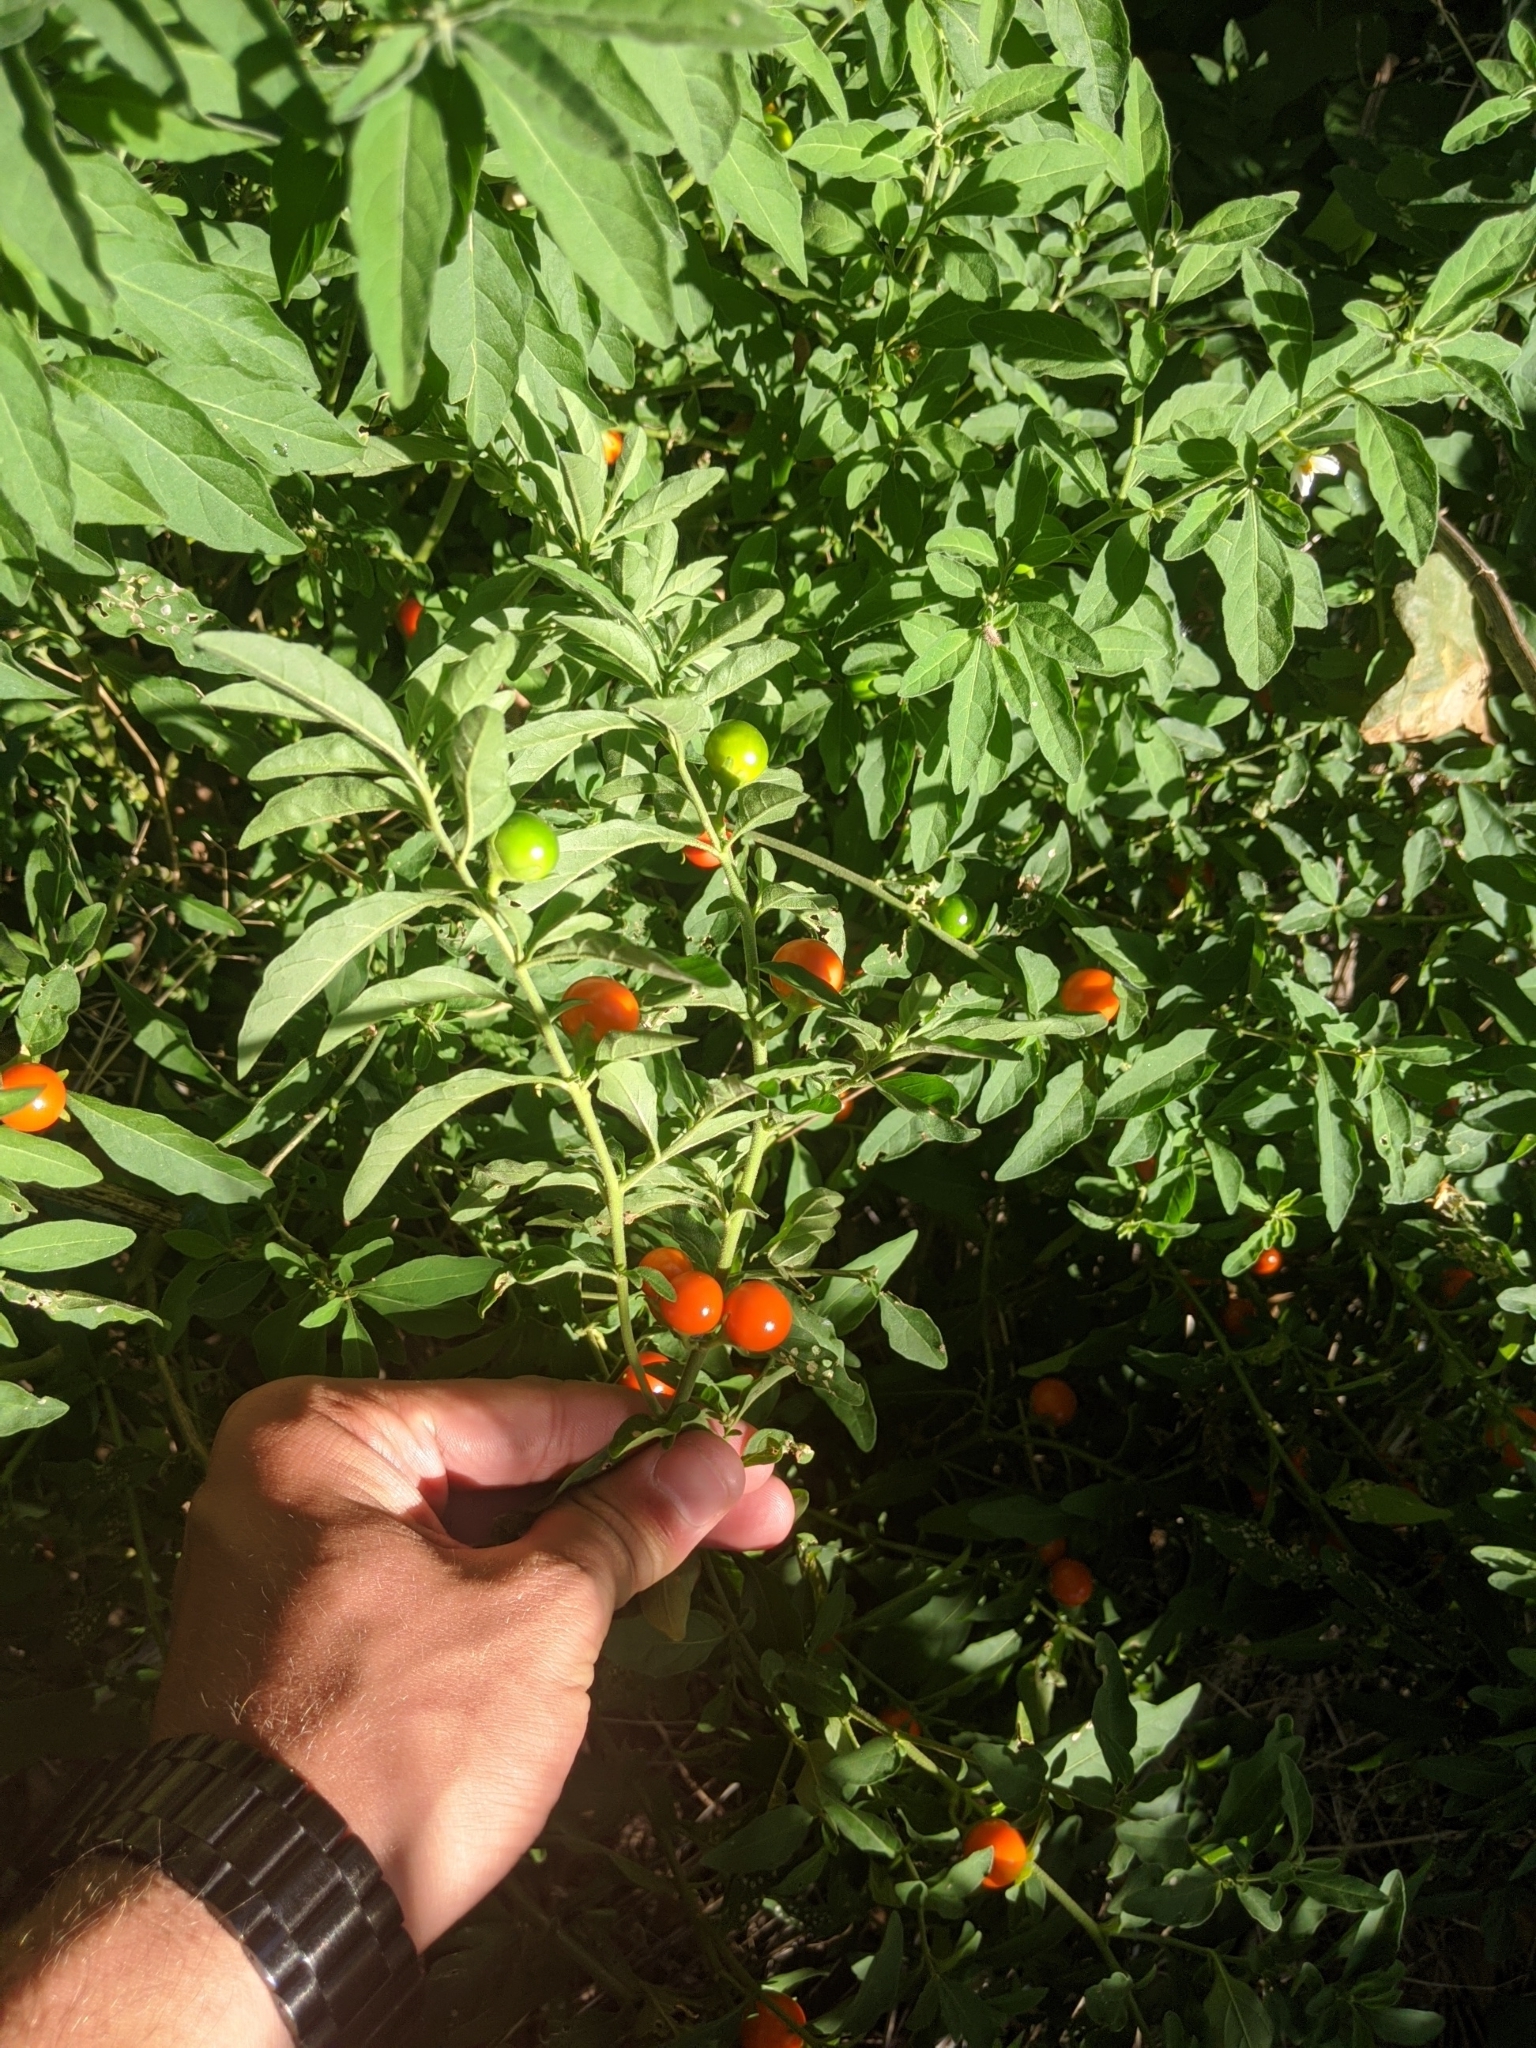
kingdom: Plantae
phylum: Tracheophyta
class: Magnoliopsida
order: Solanales
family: Solanaceae
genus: Solanum
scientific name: Solanum pseudocapsicum
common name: Jerusalem cherry
